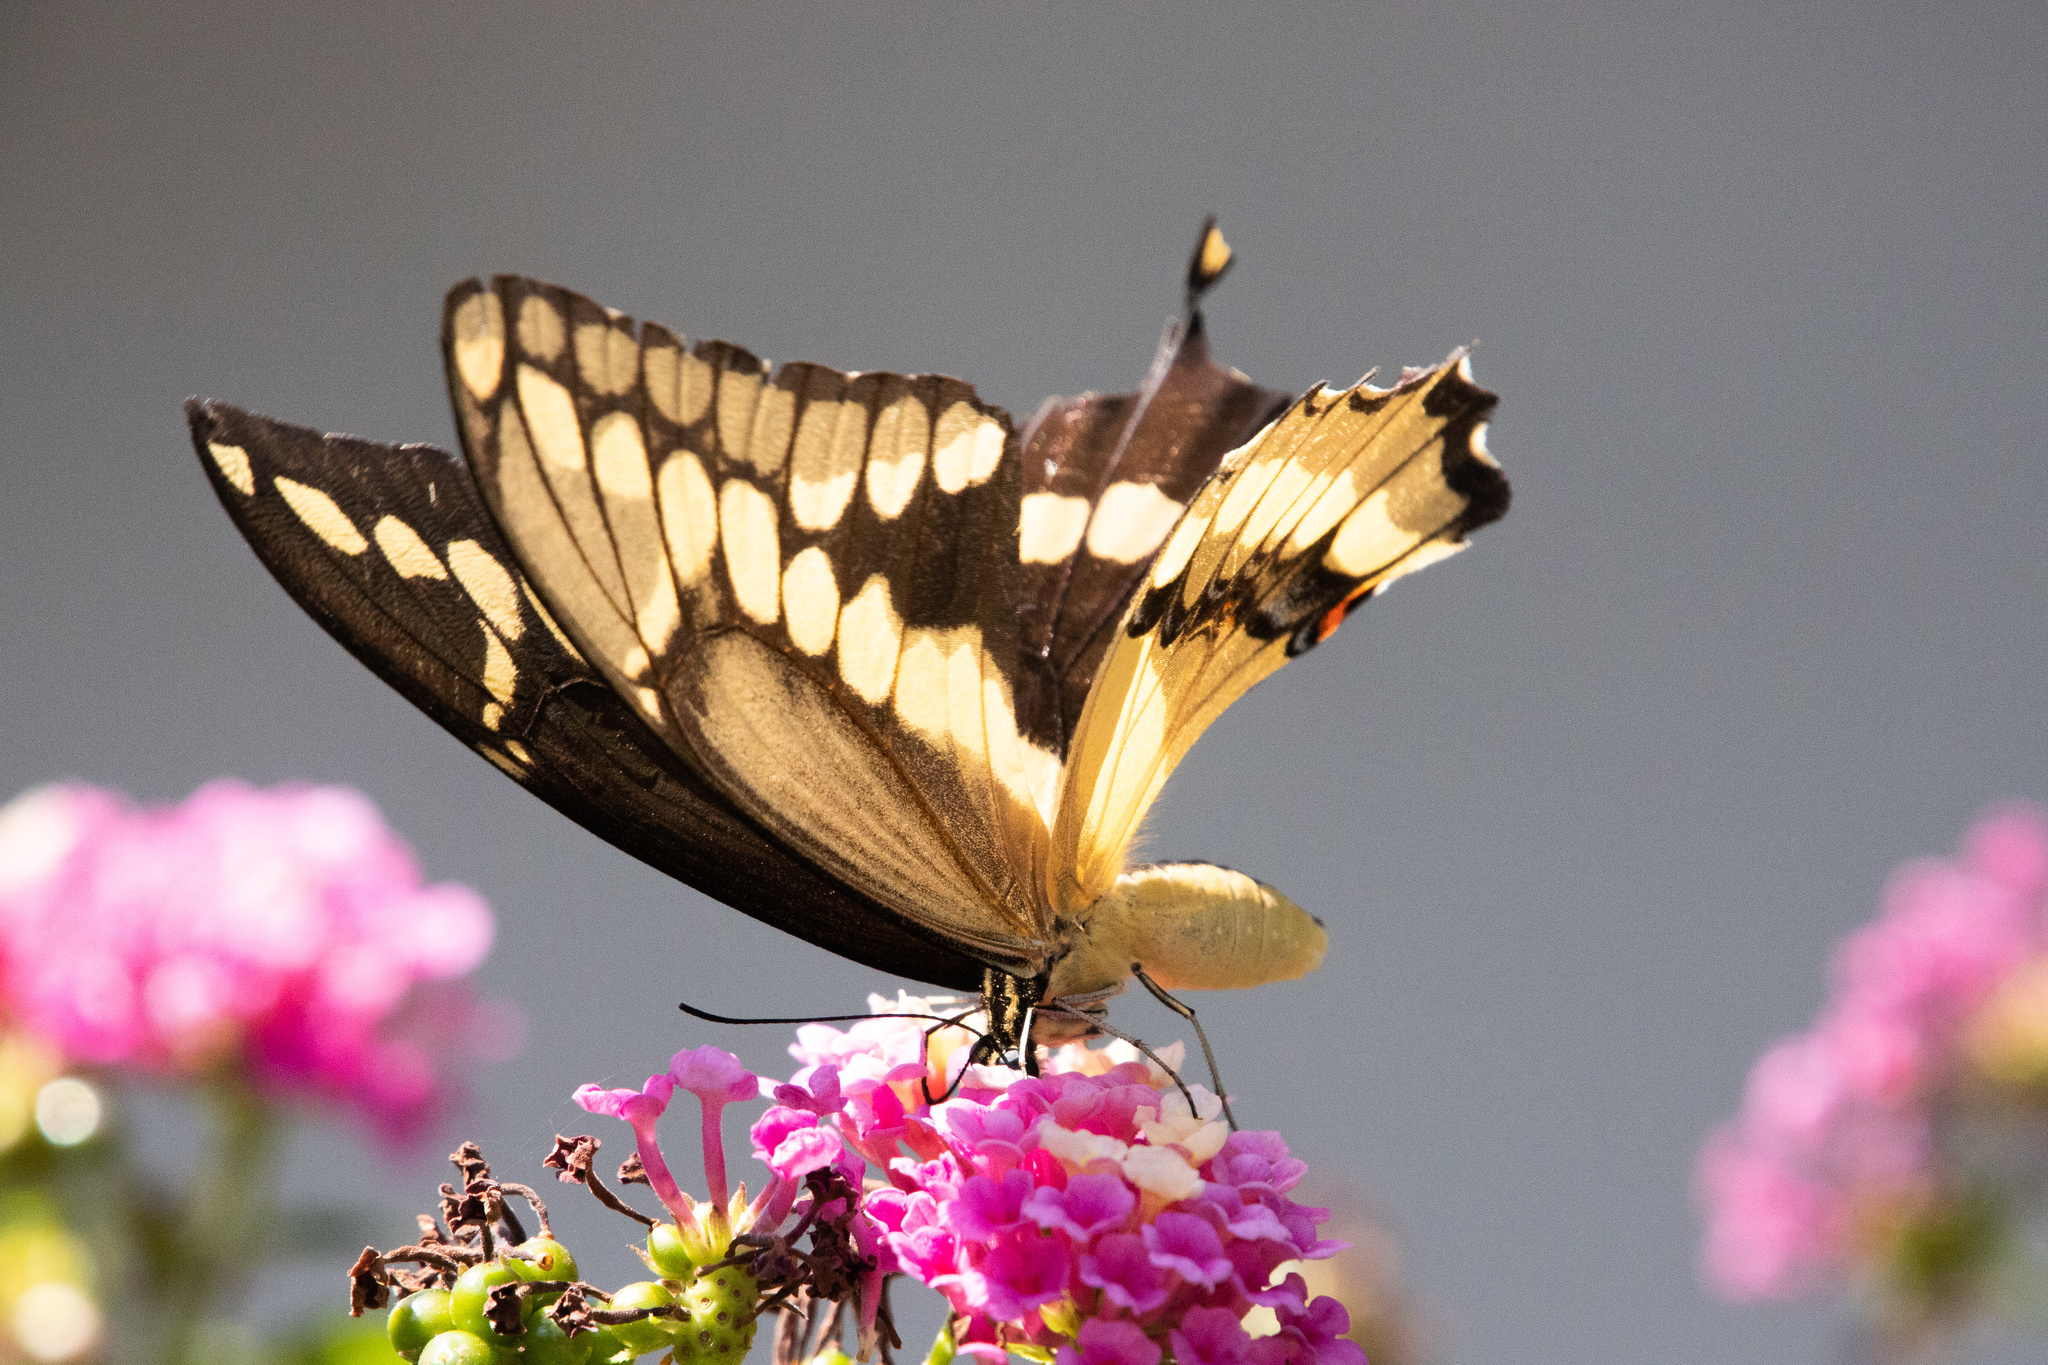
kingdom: Animalia
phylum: Arthropoda
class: Insecta
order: Lepidoptera
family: Papilionidae
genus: Papilio
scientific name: Papilio rumiko
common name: Western giant swallowtail
